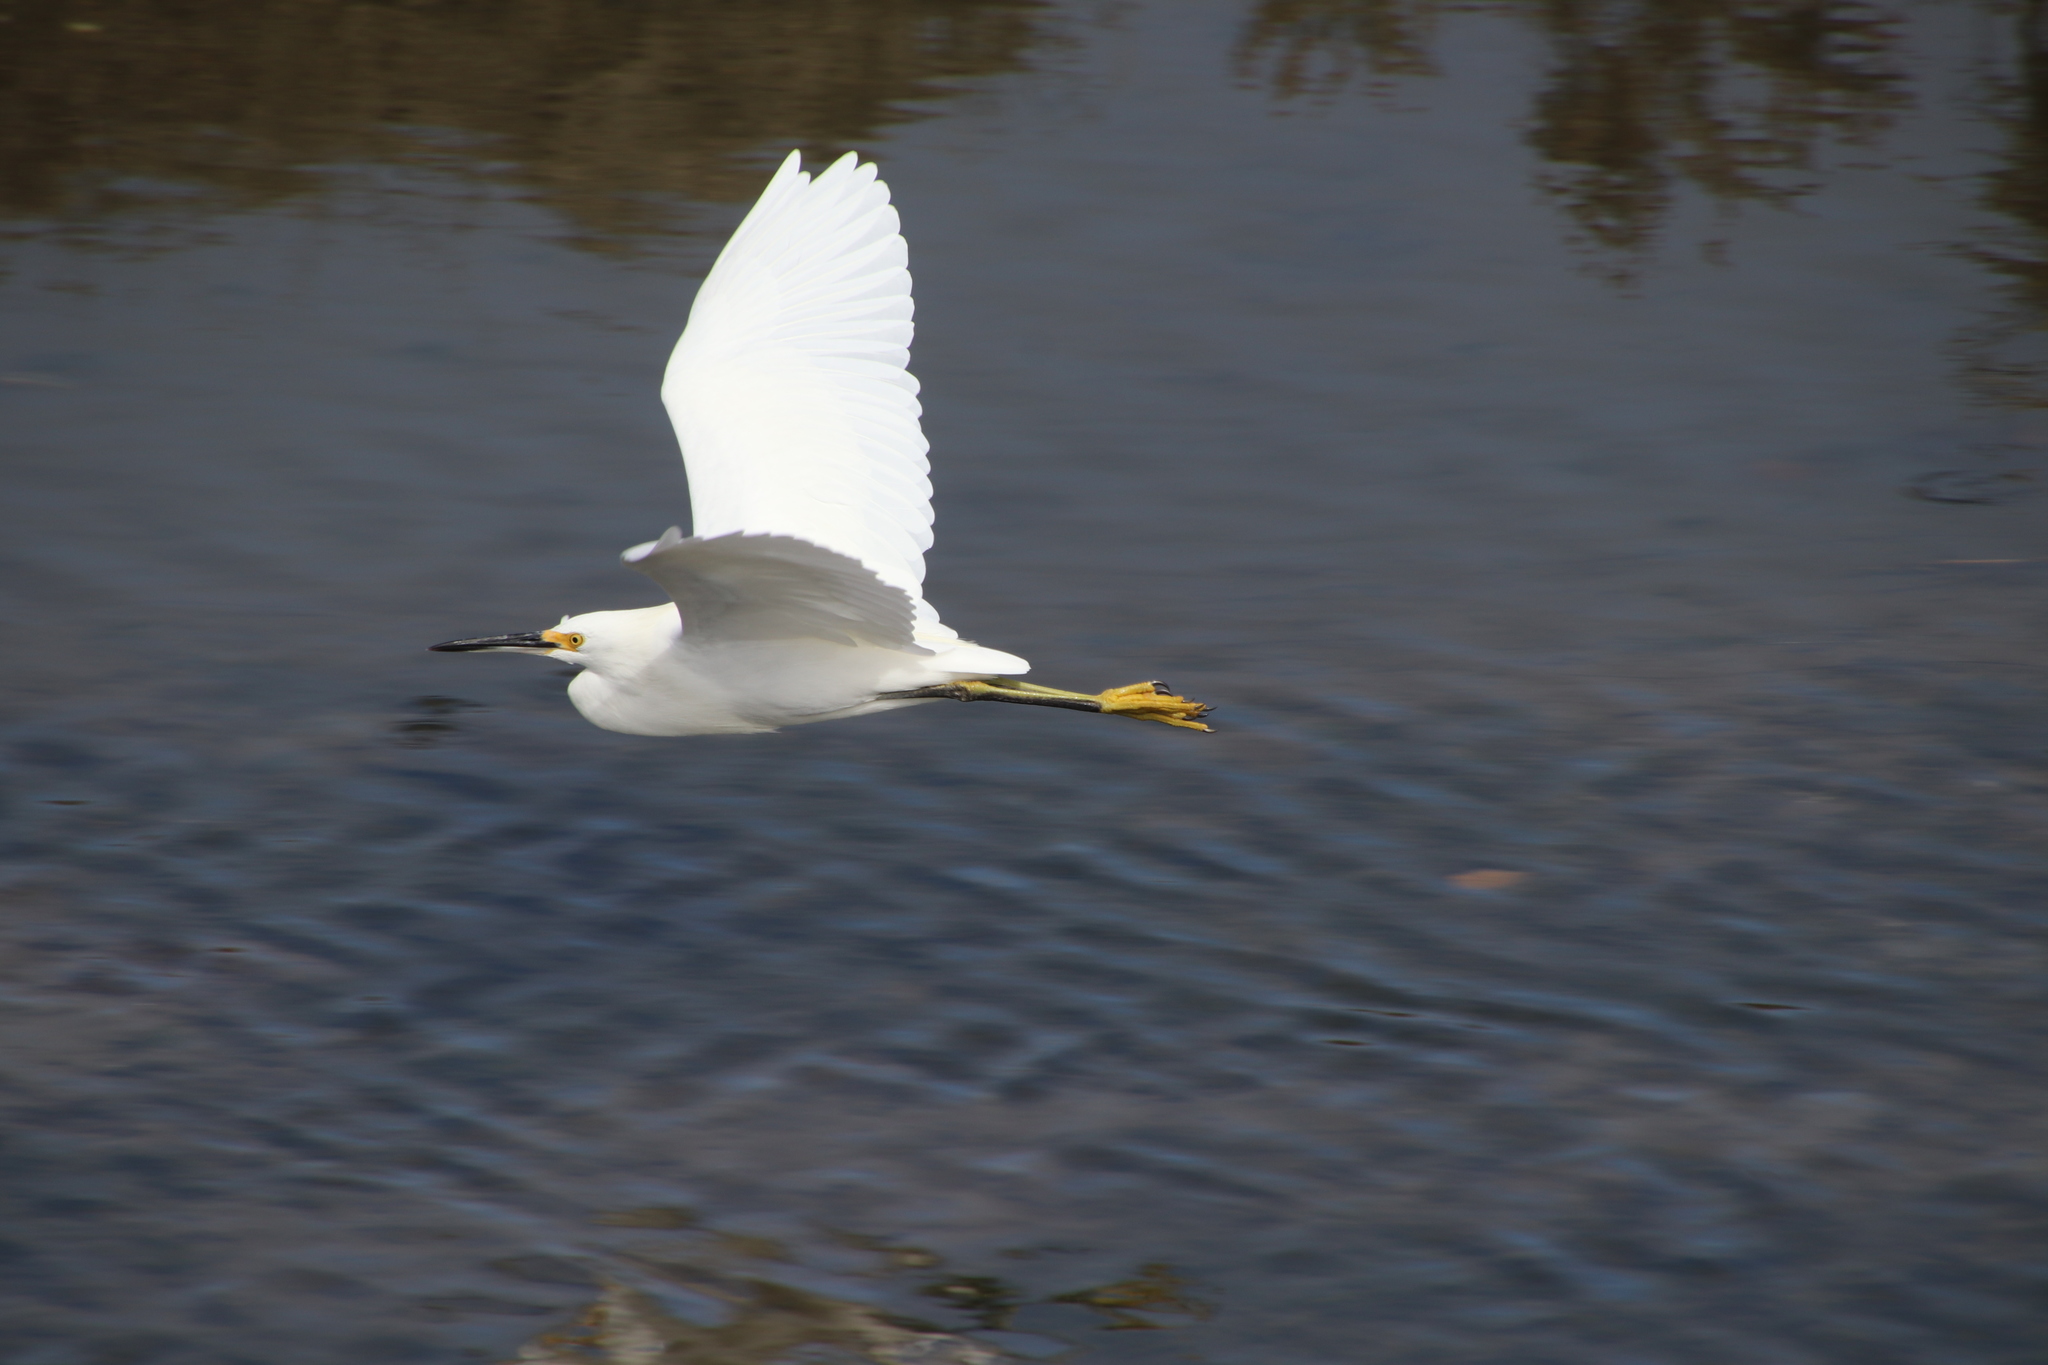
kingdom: Animalia
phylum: Chordata
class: Aves
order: Pelecaniformes
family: Ardeidae
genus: Egretta
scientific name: Egretta thula
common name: Snowy egret
